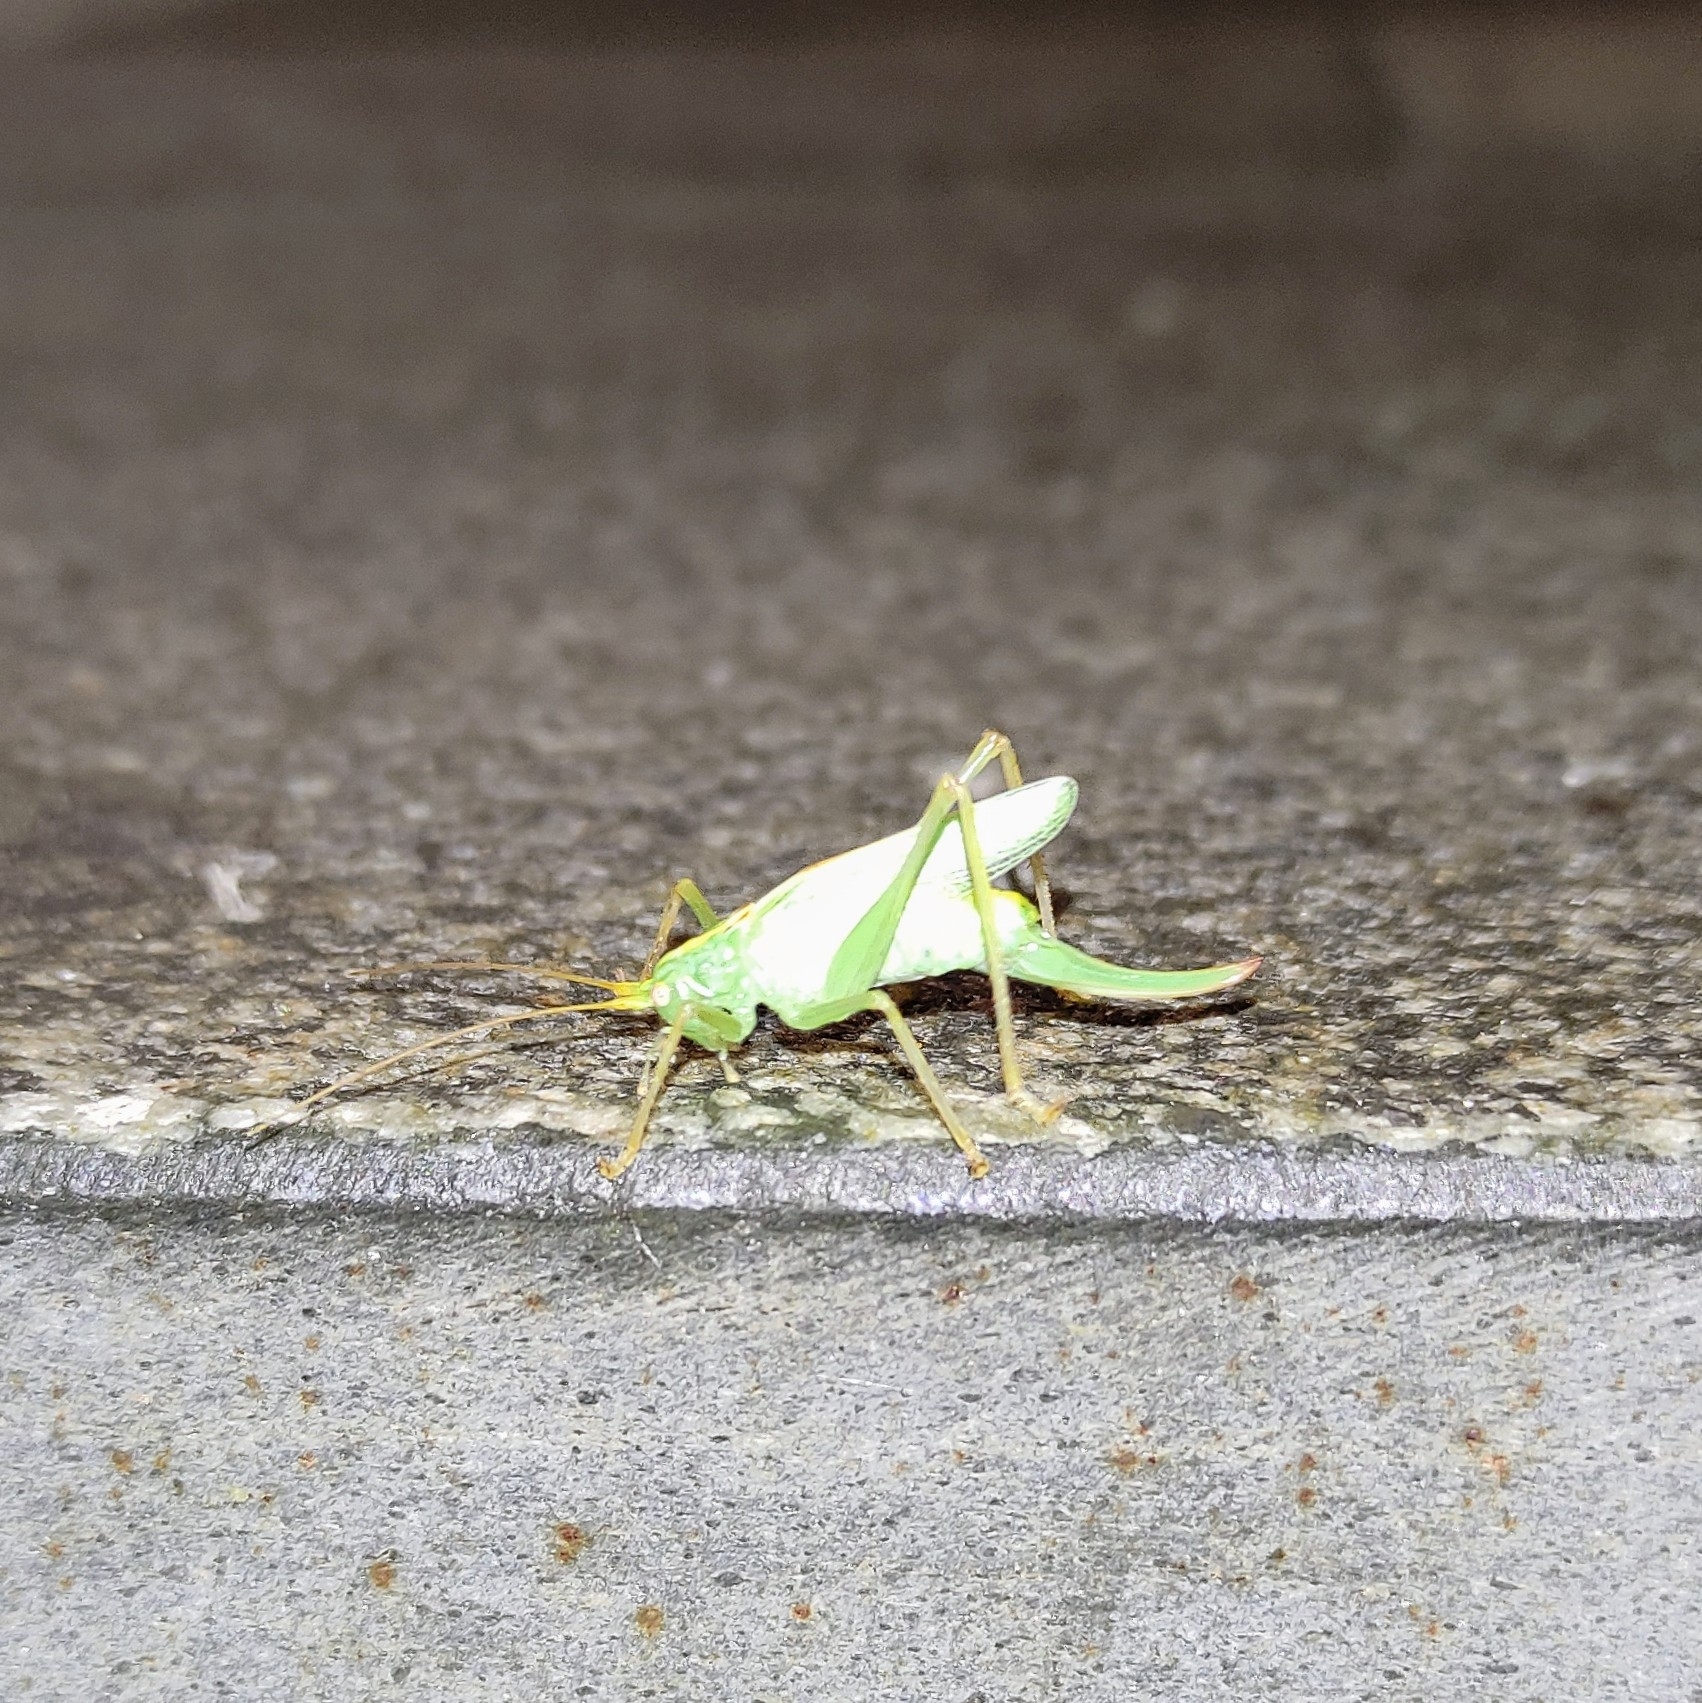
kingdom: Animalia
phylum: Arthropoda
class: Insecta
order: Orthoptera
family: Tettigoniidae
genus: Meconema
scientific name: Meconema thalassinum
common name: Oak bush-cricket
